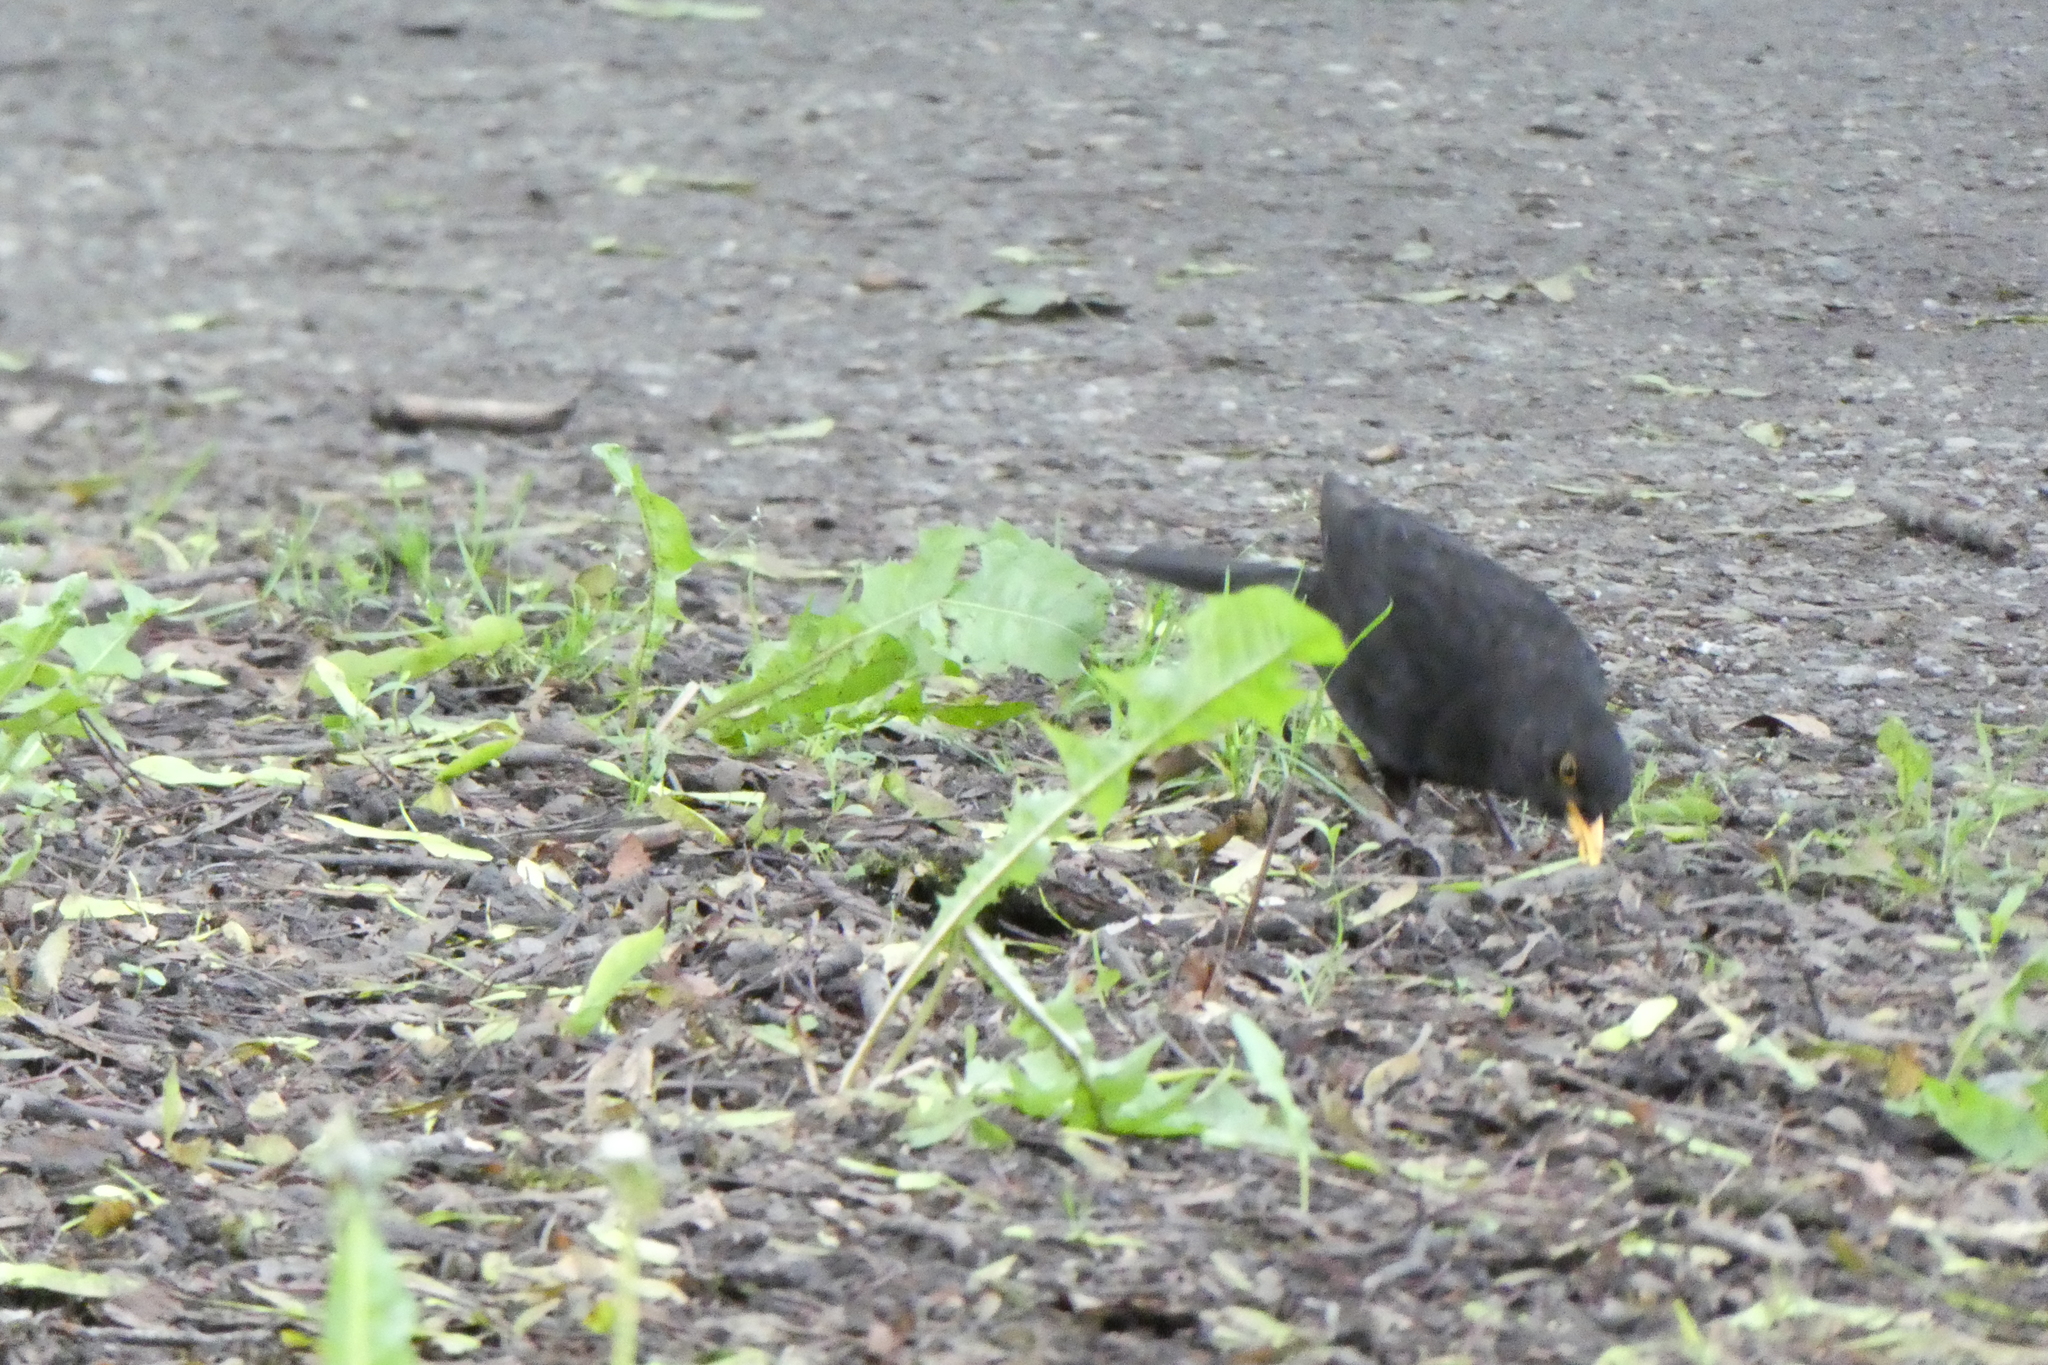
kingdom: Animalia
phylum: Chordata
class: Aves
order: Passeriformes
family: Turdidae
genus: Turdus
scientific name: Turdus merula
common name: Common blackbird
